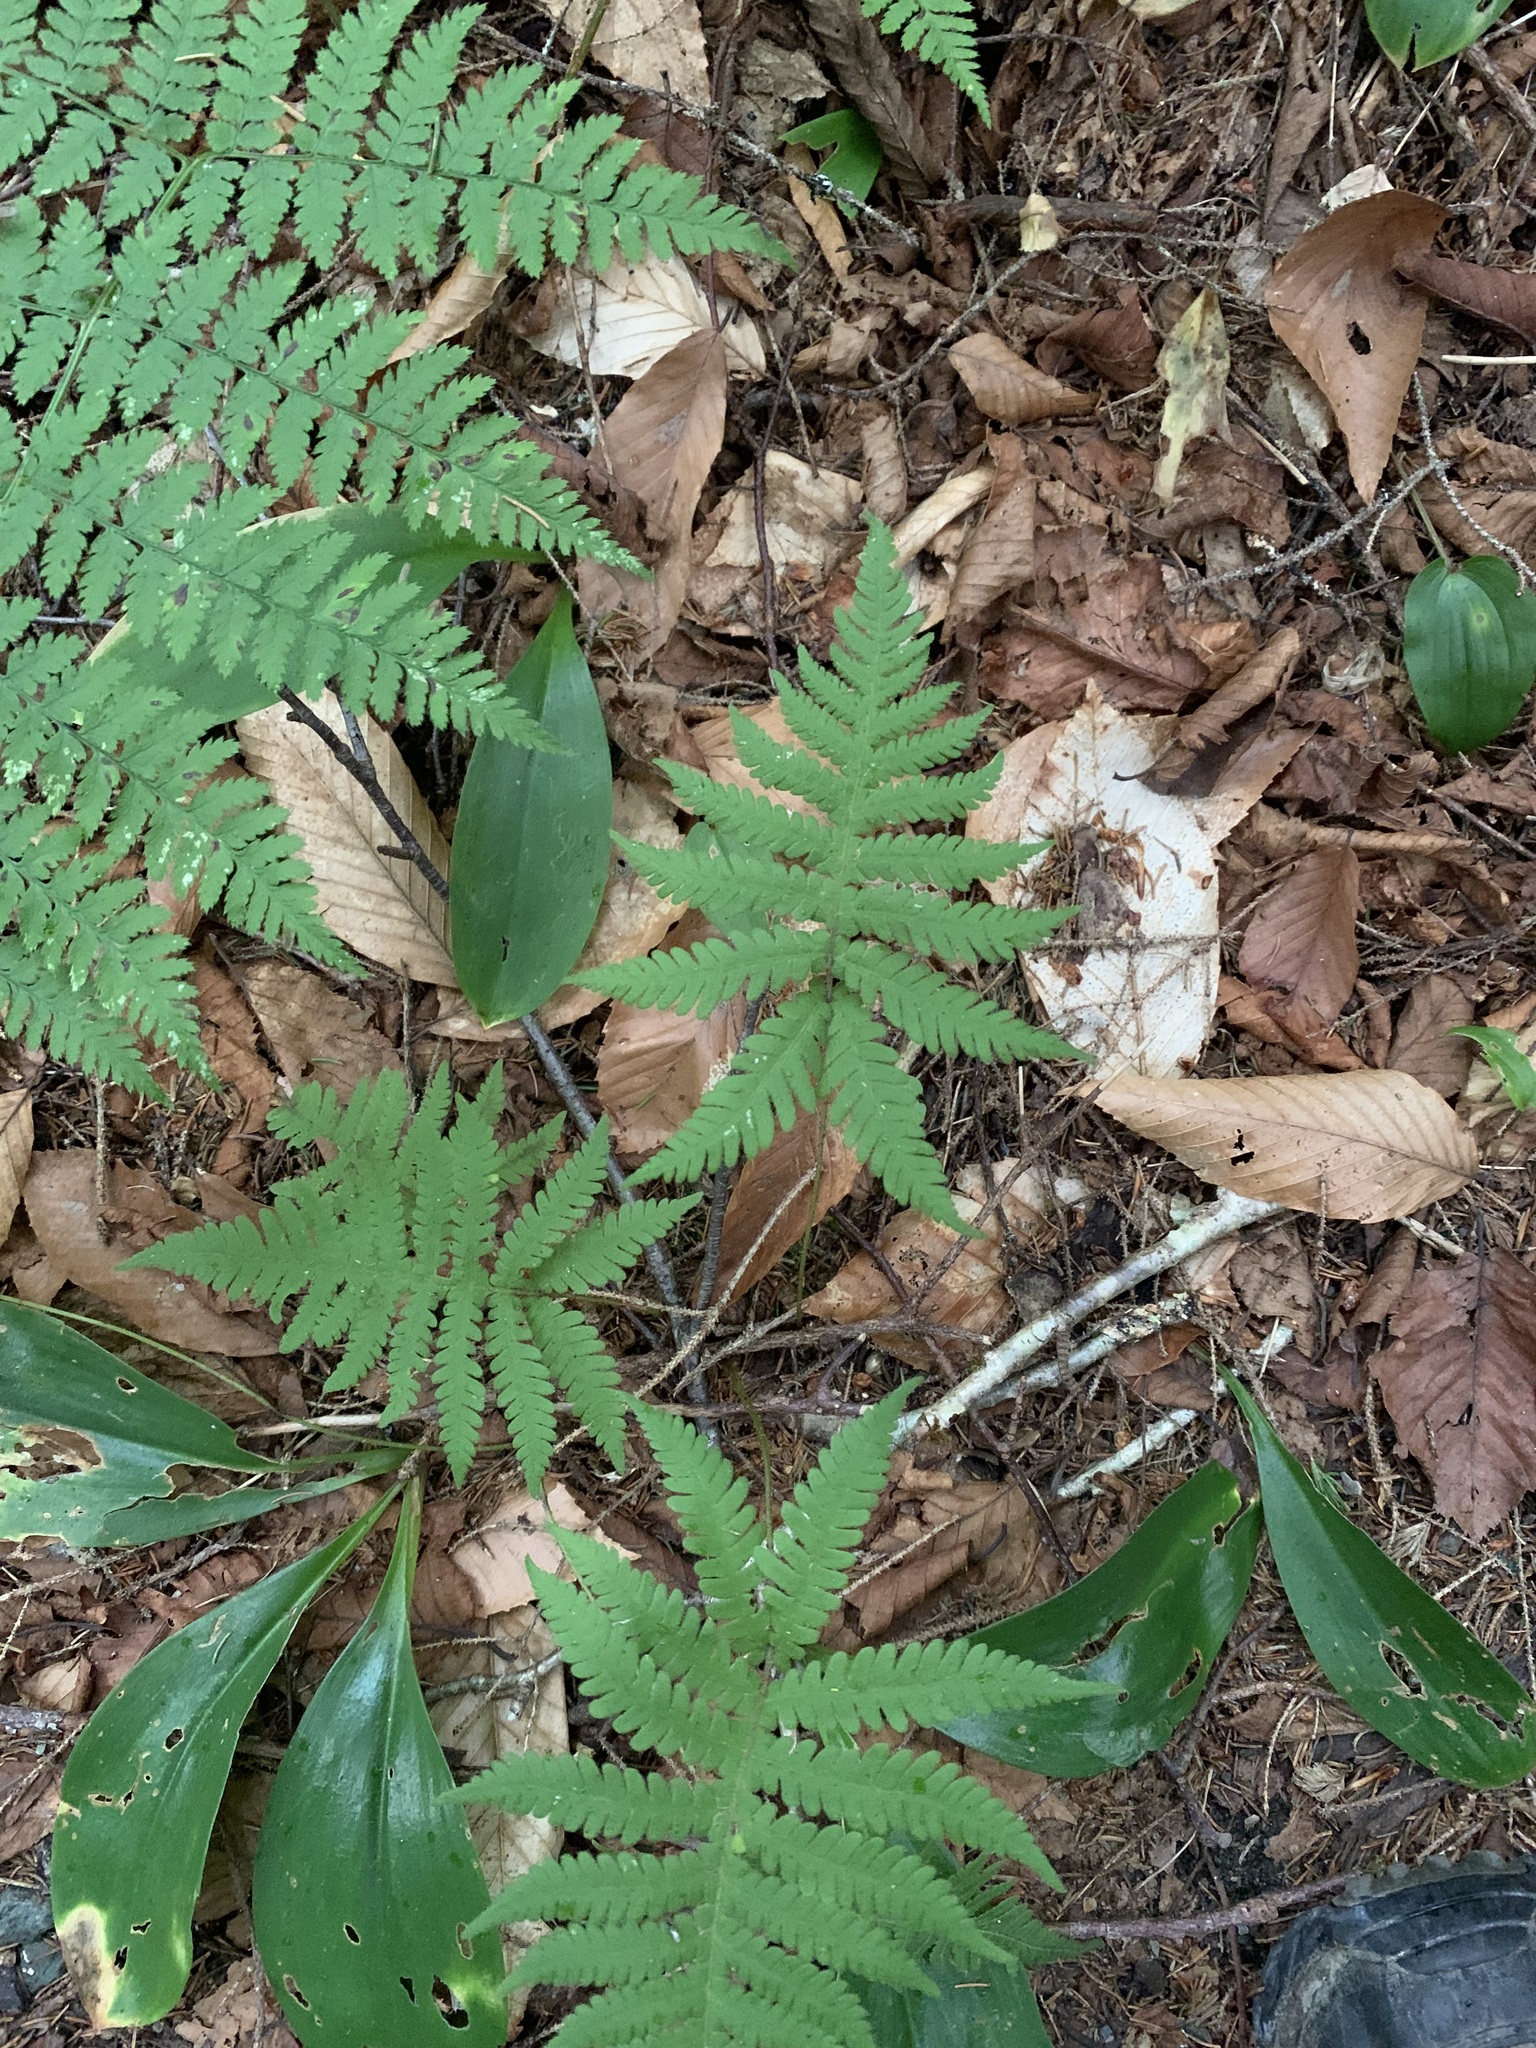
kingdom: Plantae
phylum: Tracheophyta
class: Polypodiopsida
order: Polypodiales
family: Thelypteridaceae
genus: Phegopteris
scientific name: Phegopteris connectilis
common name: Beech fern
